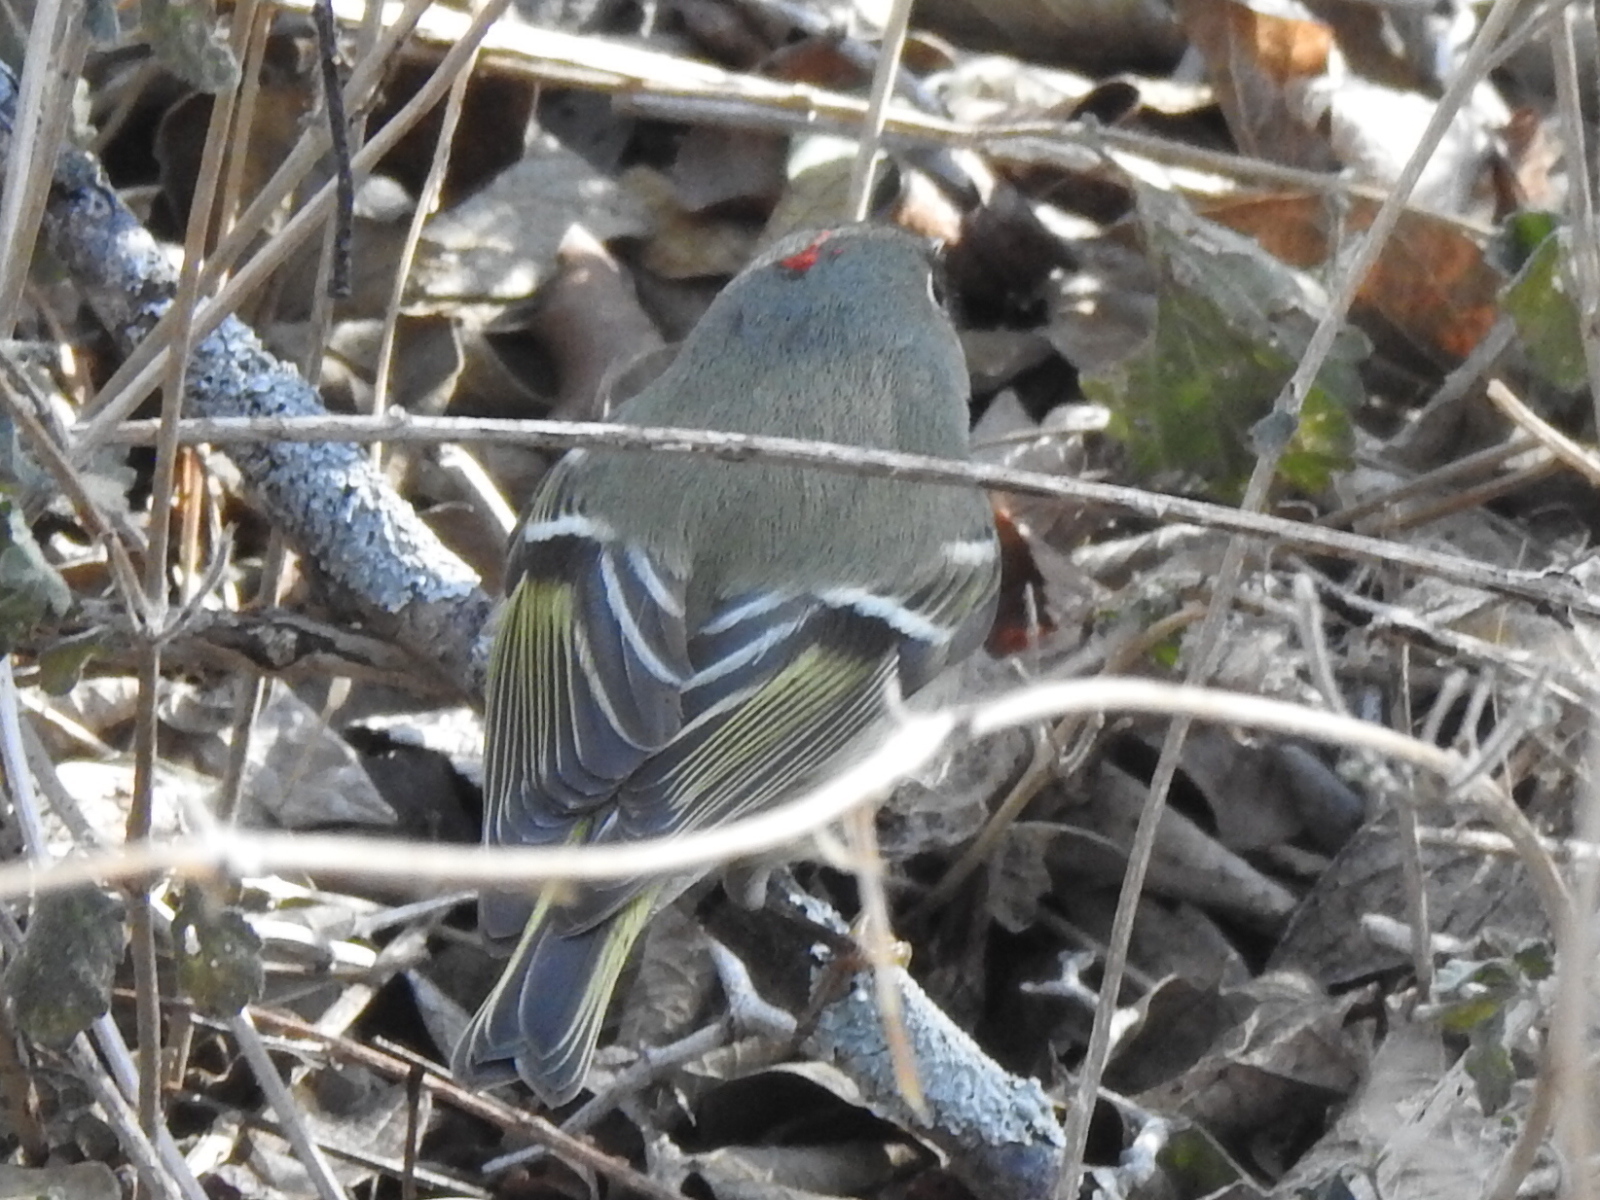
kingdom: Animalia
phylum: Chordata
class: Aves
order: Passeriformes
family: Regulidae
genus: Regulus
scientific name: Regulus calendula
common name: Ruby-crowned kinglet
